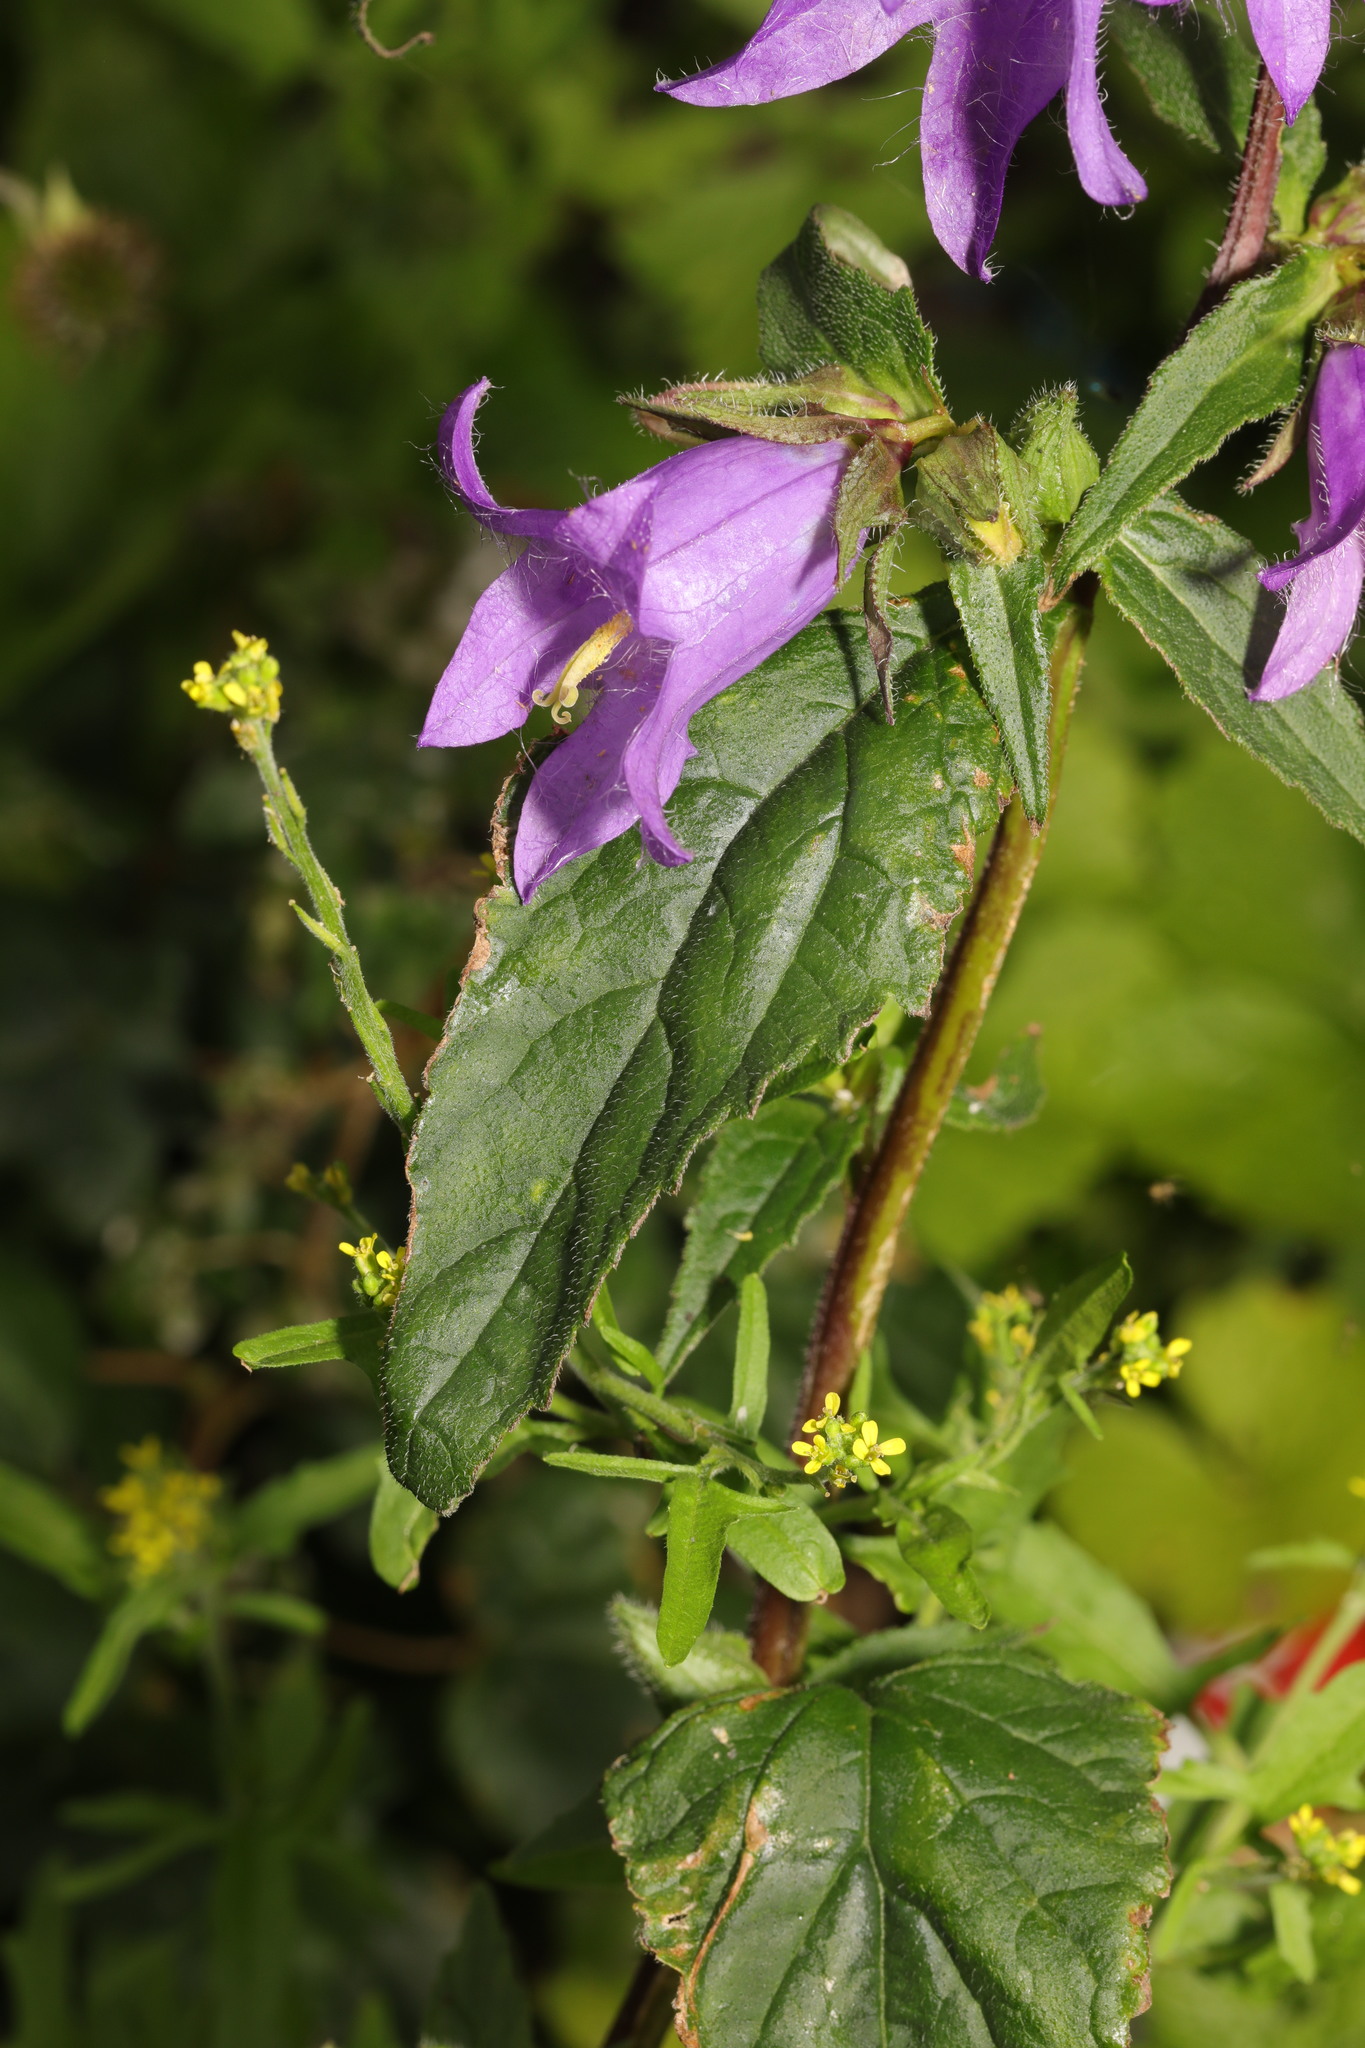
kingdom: Plantae
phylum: Tracheophyta
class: Magnoliopsida
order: Asterales
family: Campanulaceae
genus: Campanula
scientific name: Campanula trachelium
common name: Nettle-leaved bellflower
